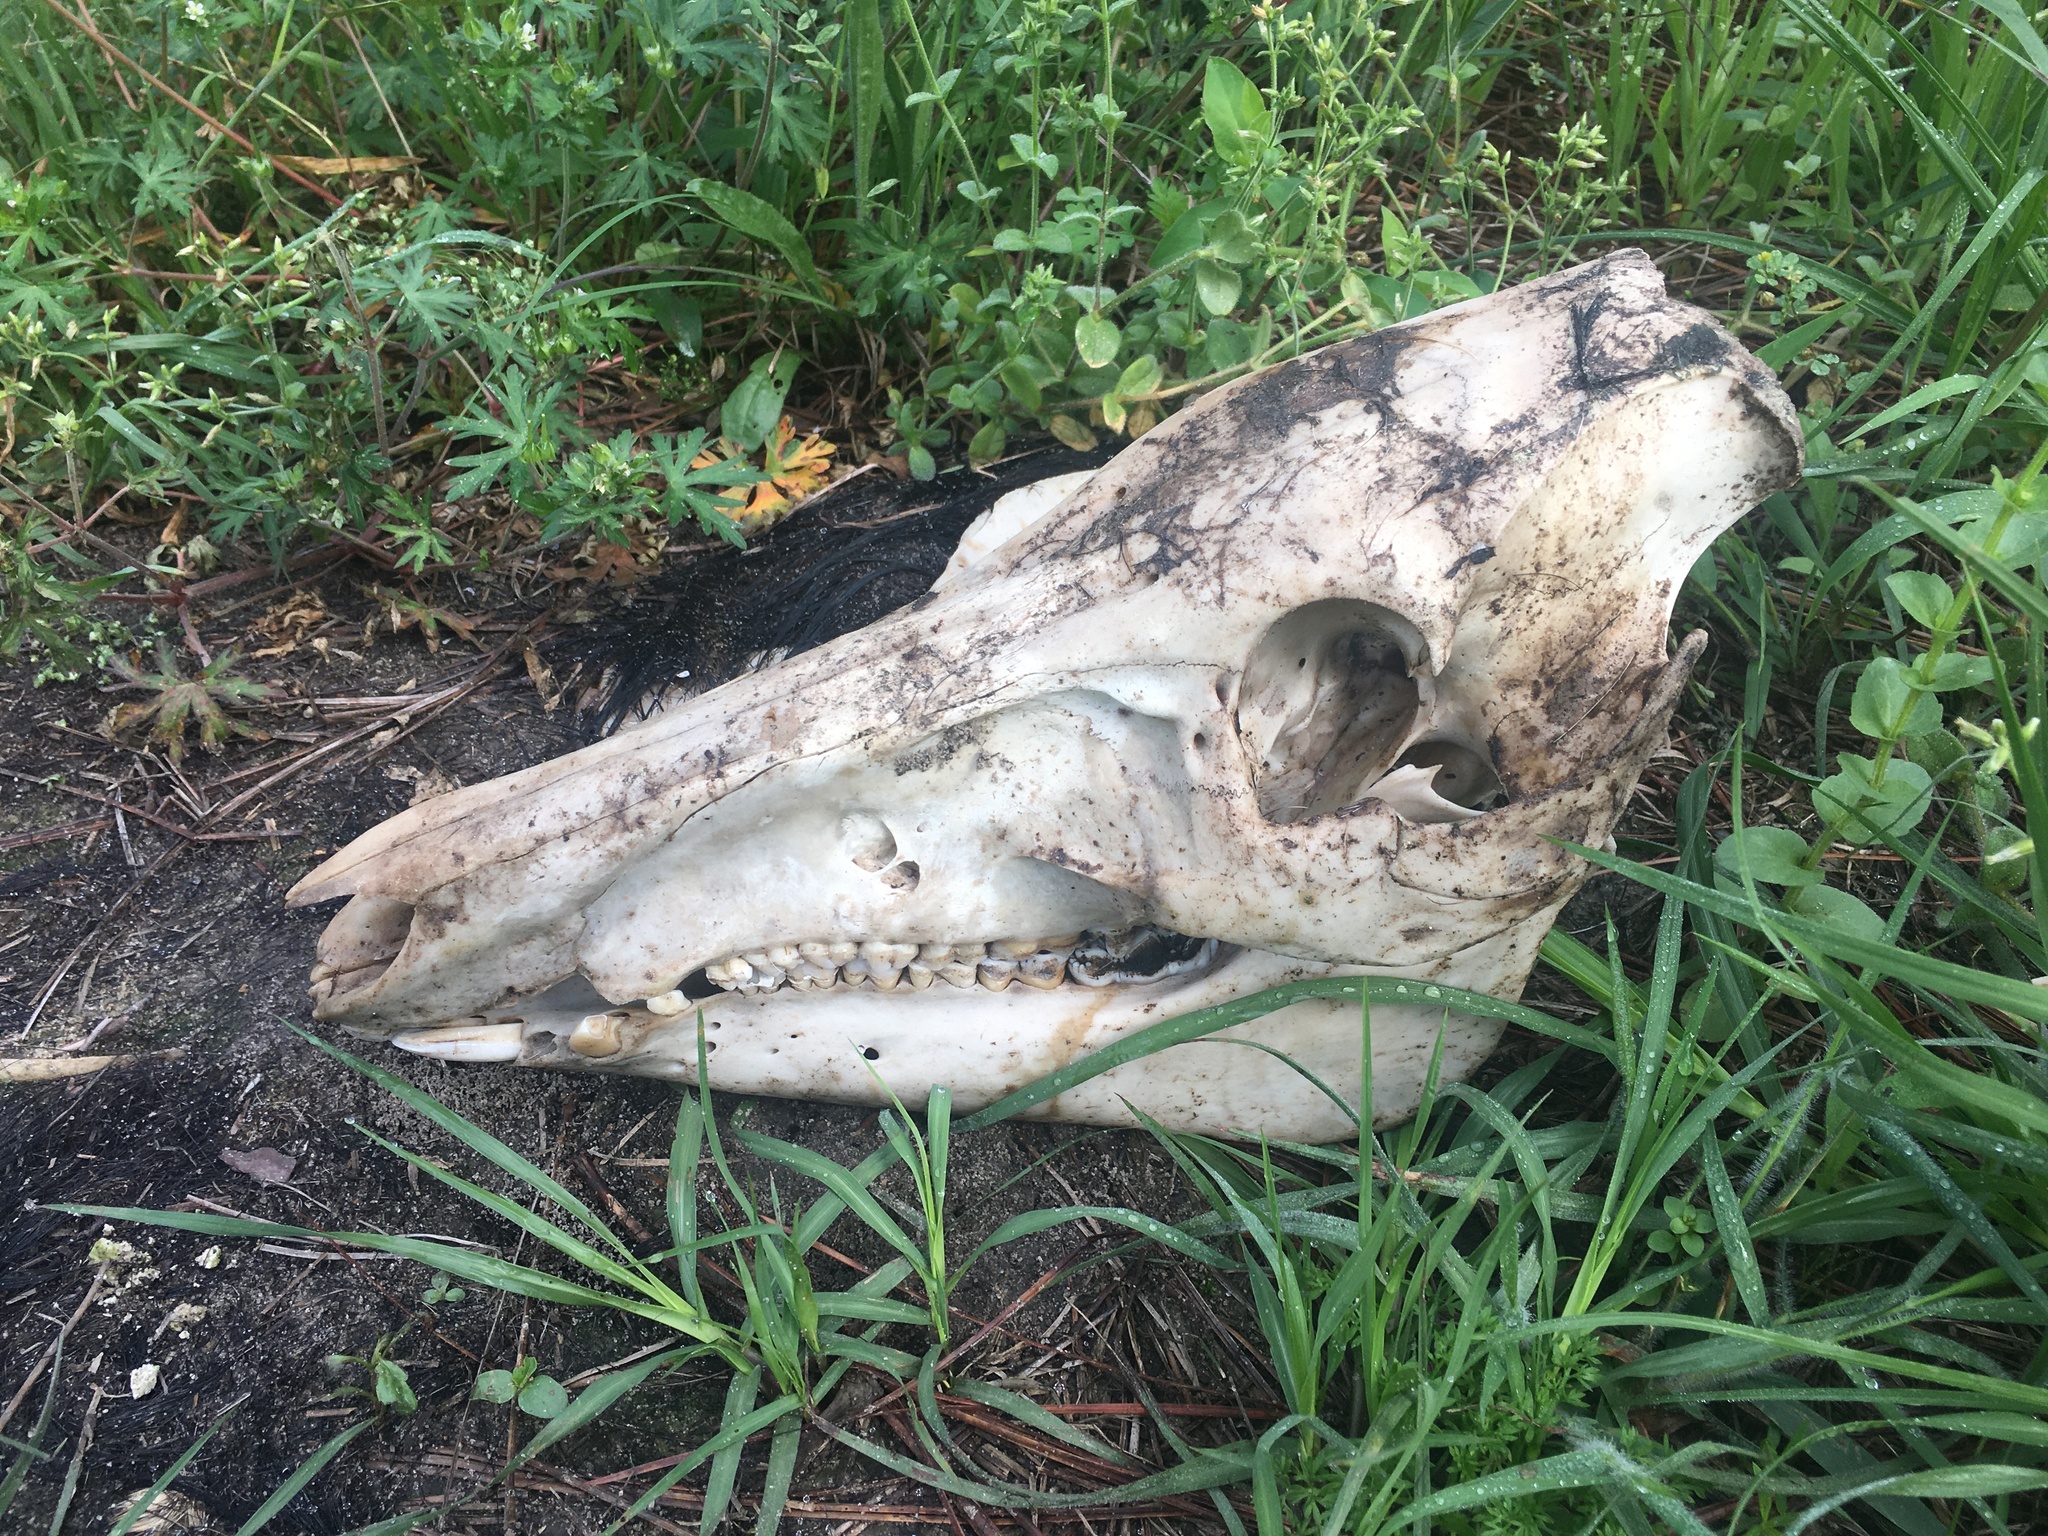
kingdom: Animalia
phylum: Chordata
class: Mammalia
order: Artiodactyla
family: Suidae
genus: Sus
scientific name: Sus scrofa
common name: Wild boar
